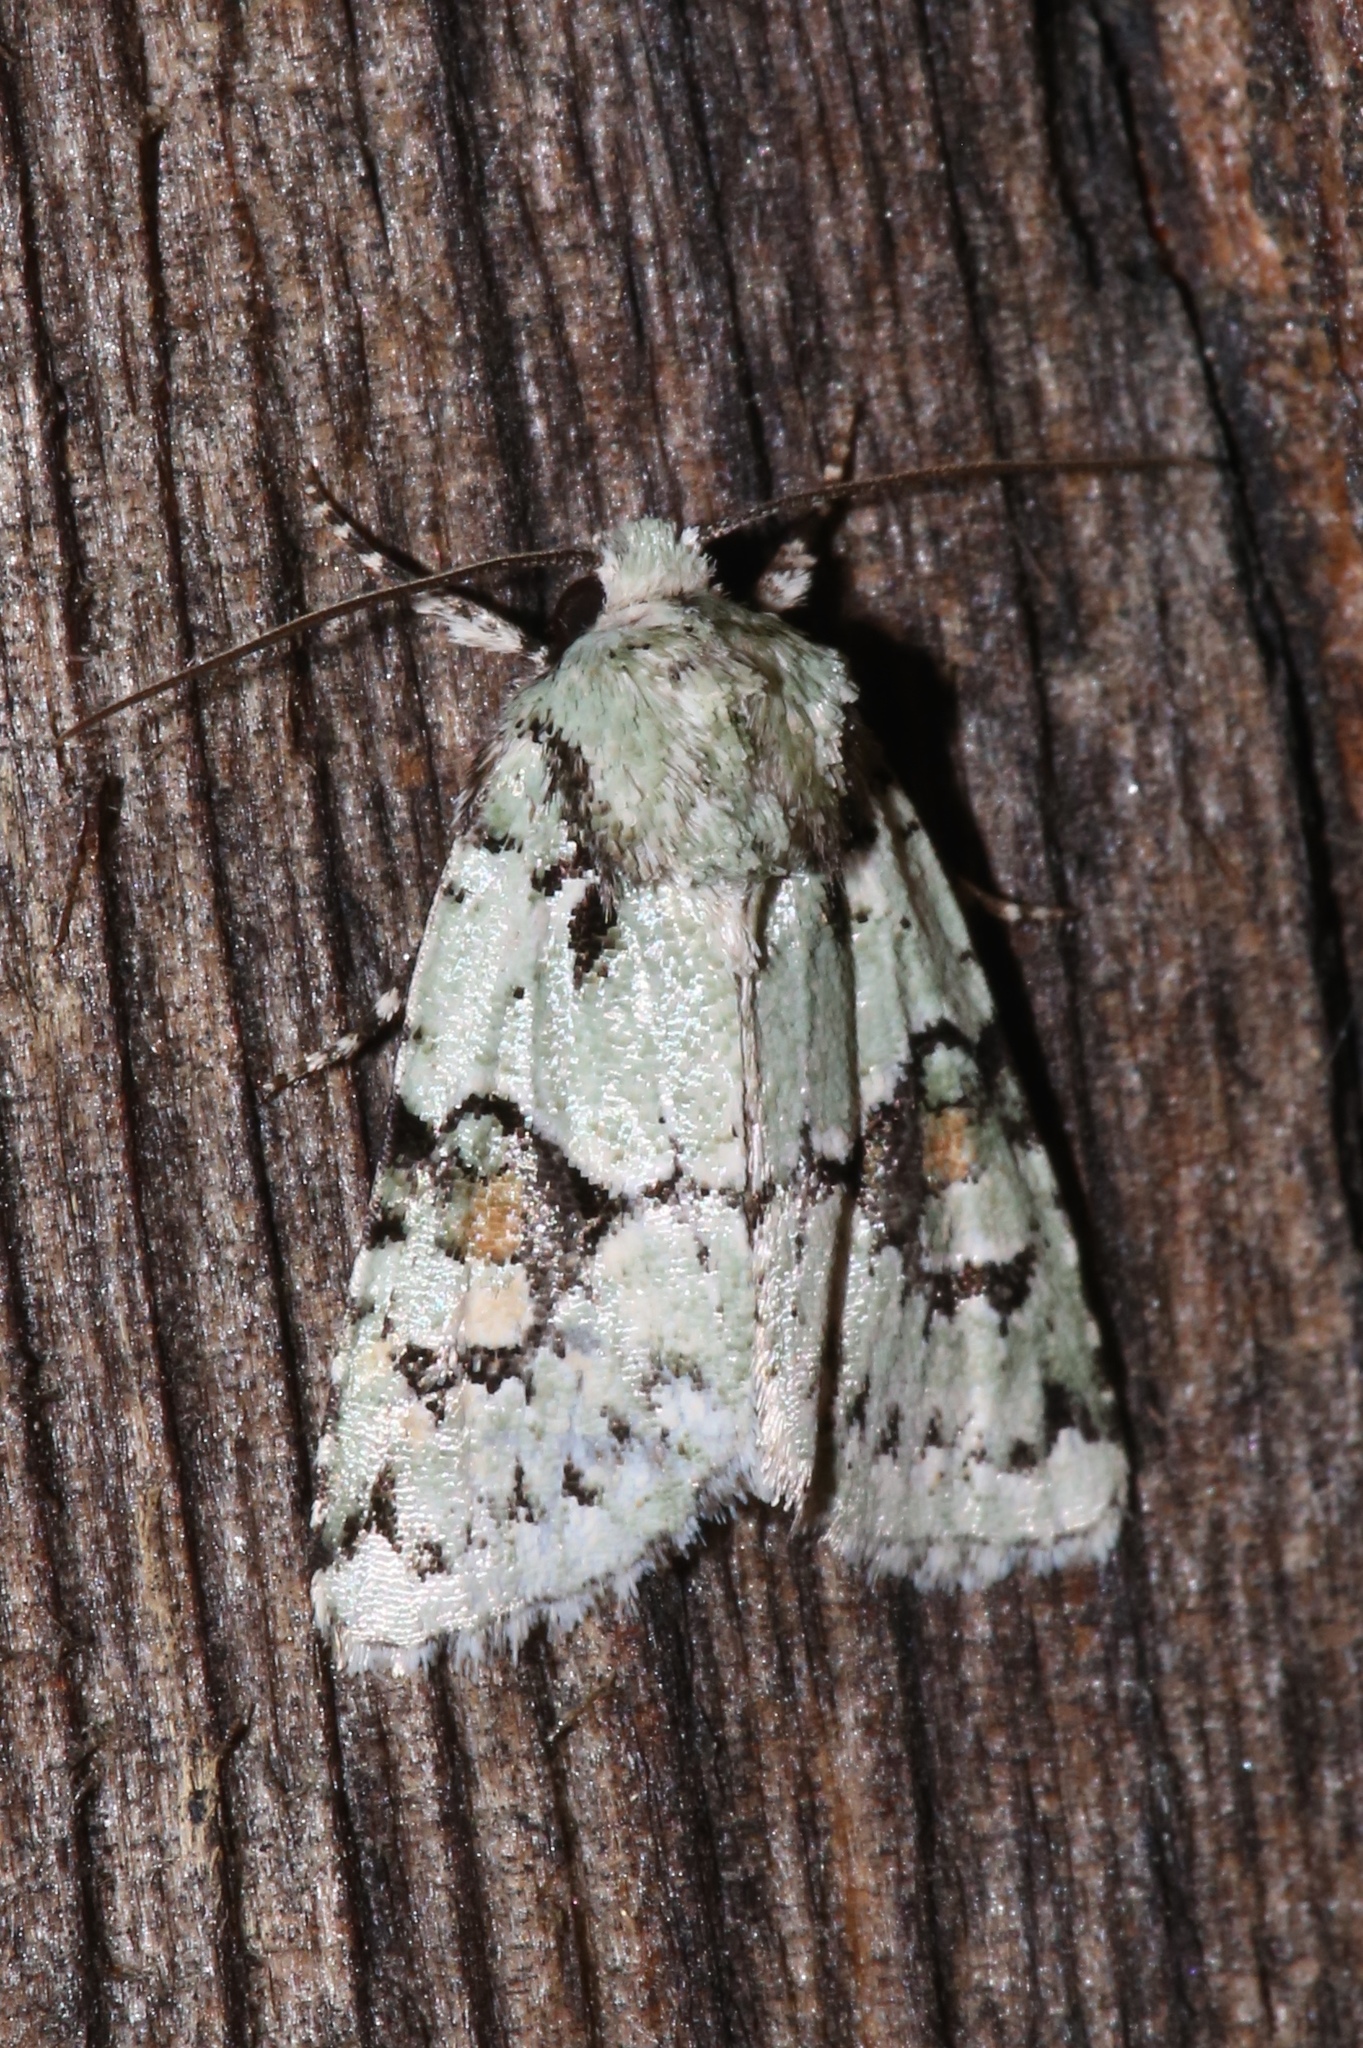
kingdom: Animalia
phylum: Arthropoda
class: Insecta
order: Lepidoptera
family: Noctuidae
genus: Lacinipolia
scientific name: Lacinipolia implicata
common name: Implicit arches
